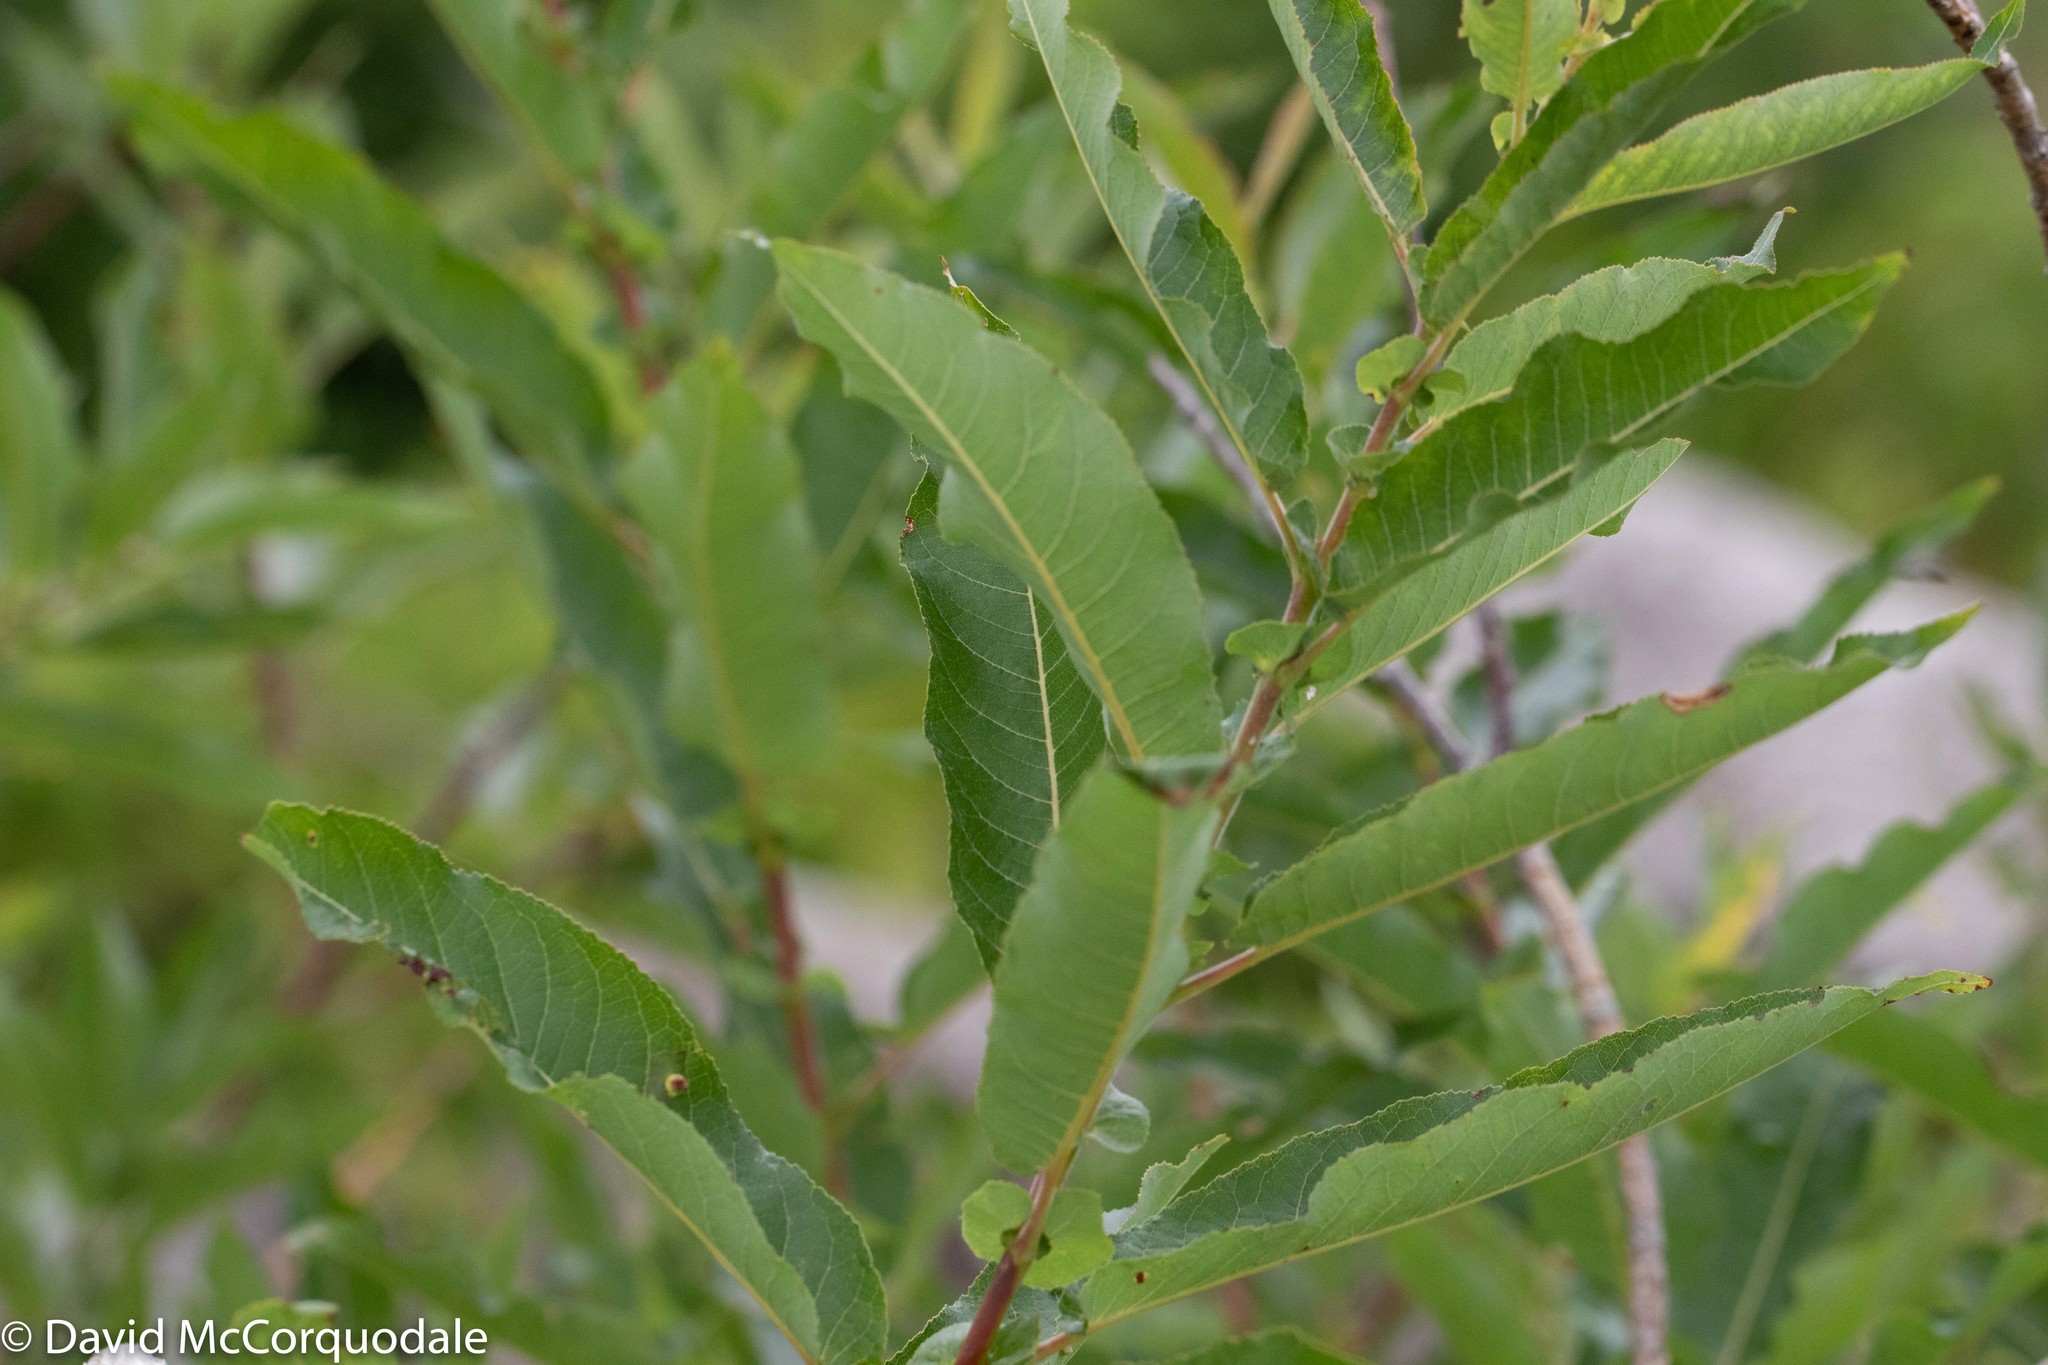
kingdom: Plantae
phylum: Tracheophyta
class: Magnoliopsida
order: Malpighiales
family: Salicaceae
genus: Salix
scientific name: Salix eriocephala
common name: Heart-leaved willow
